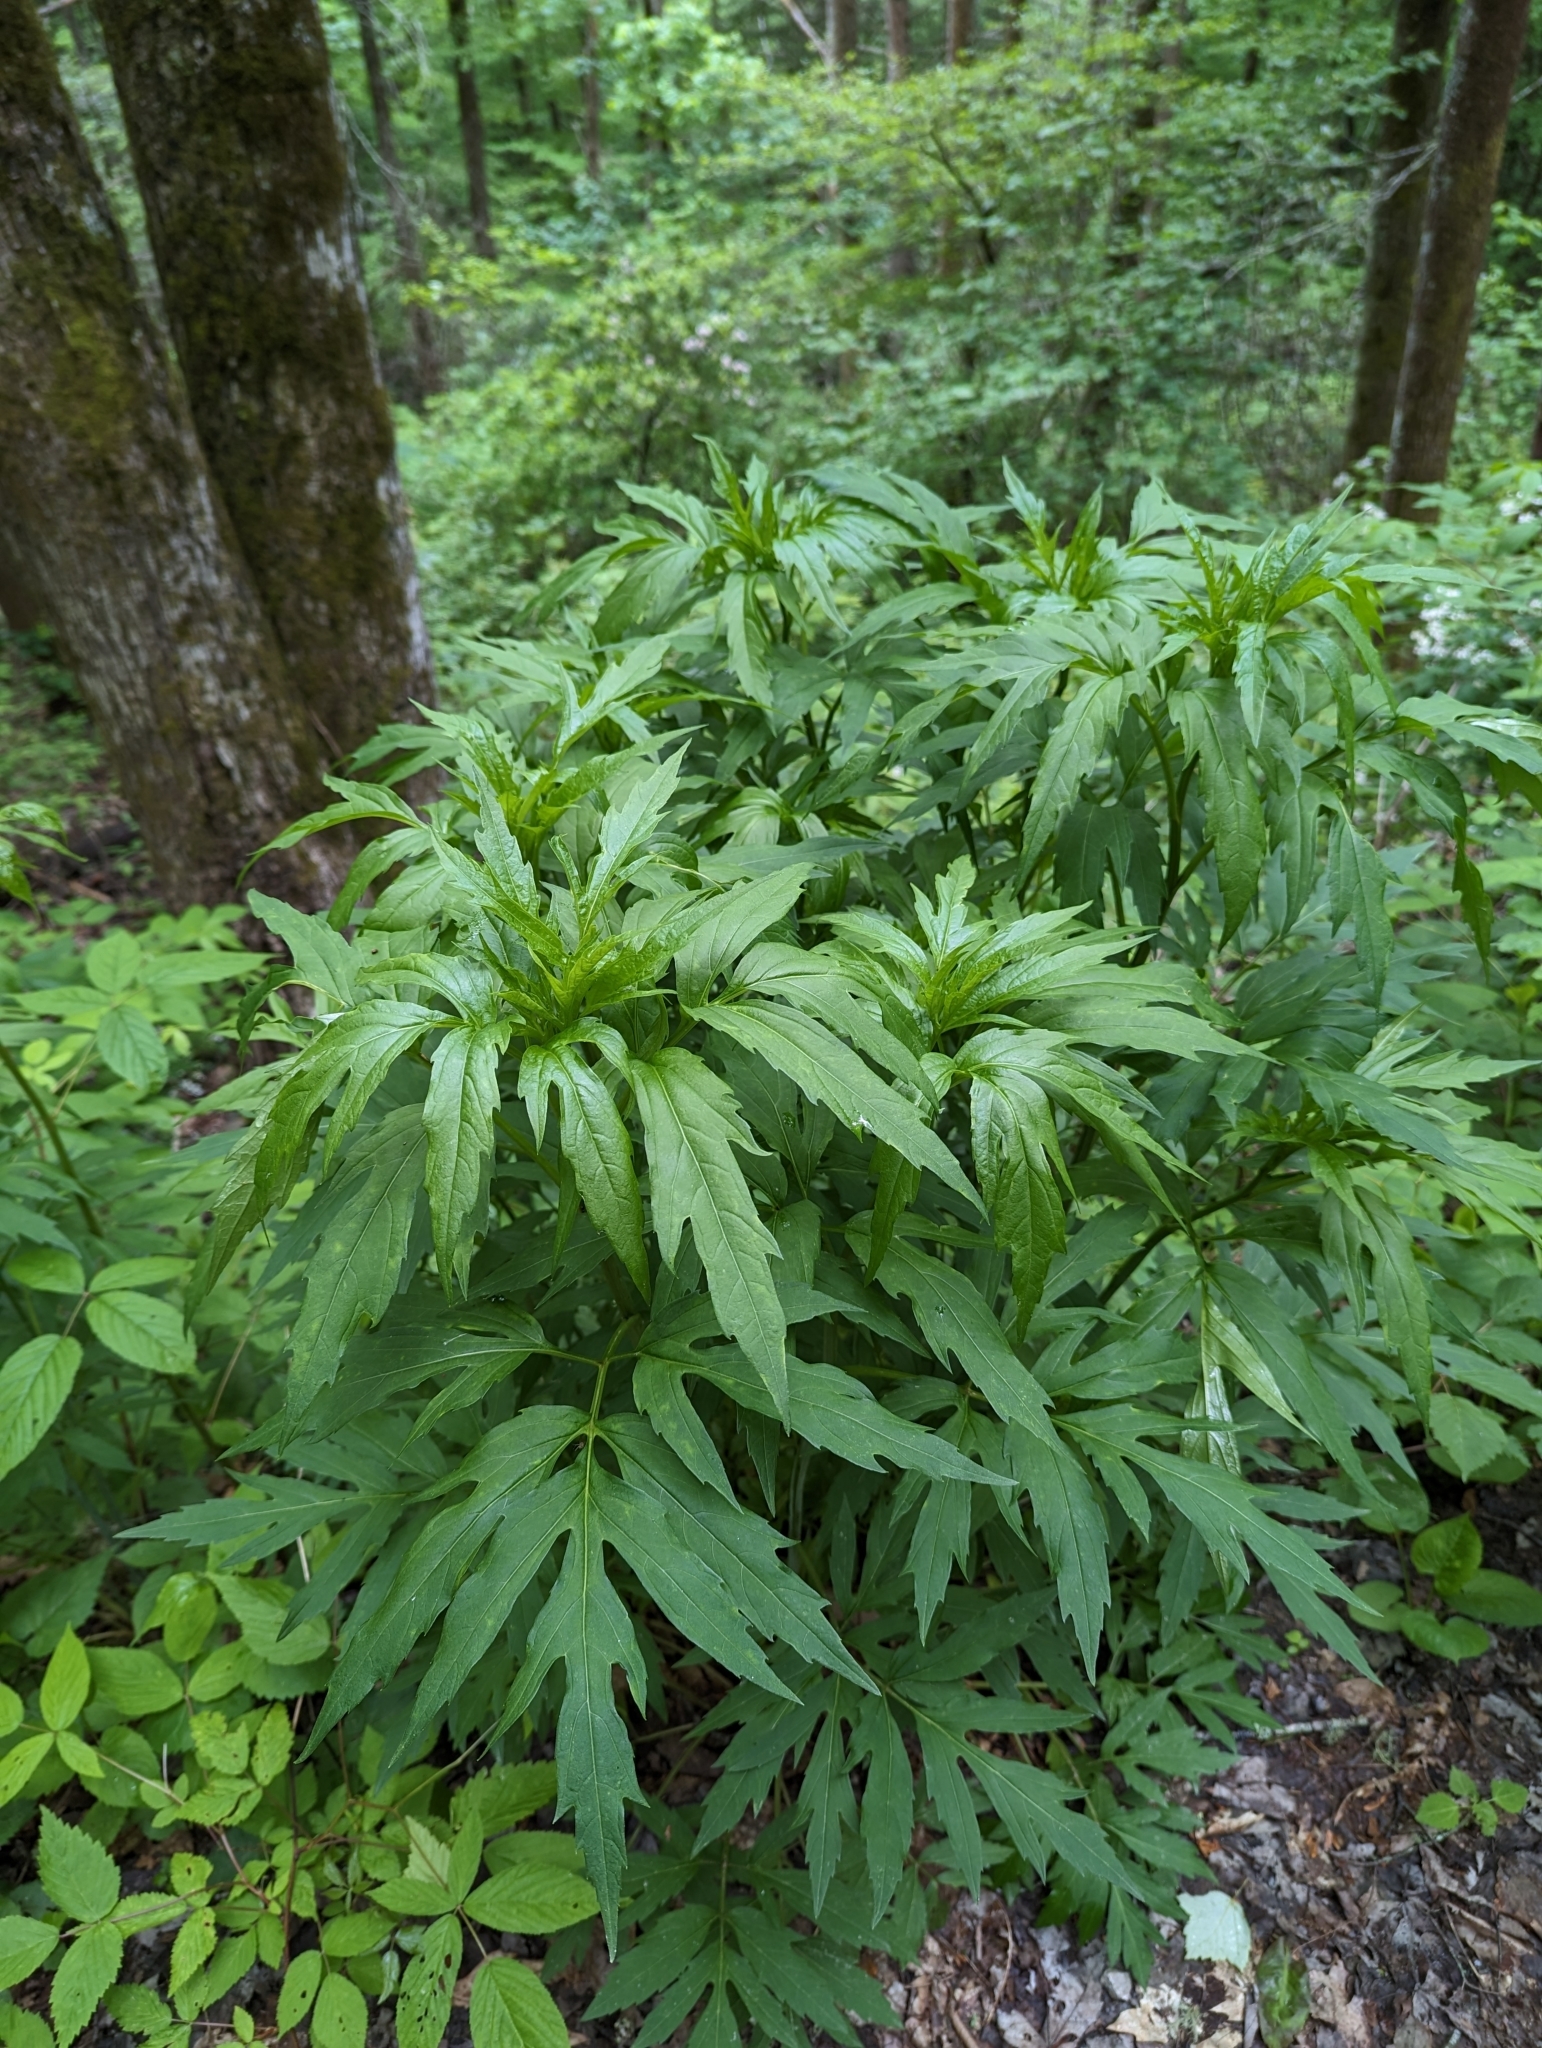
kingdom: Plantae
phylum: Tracheophyta
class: Magnoliopsida
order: Asterales
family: Asteraceae
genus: Rudbeckia
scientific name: Rudbeckia laciniata
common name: Coneflower
